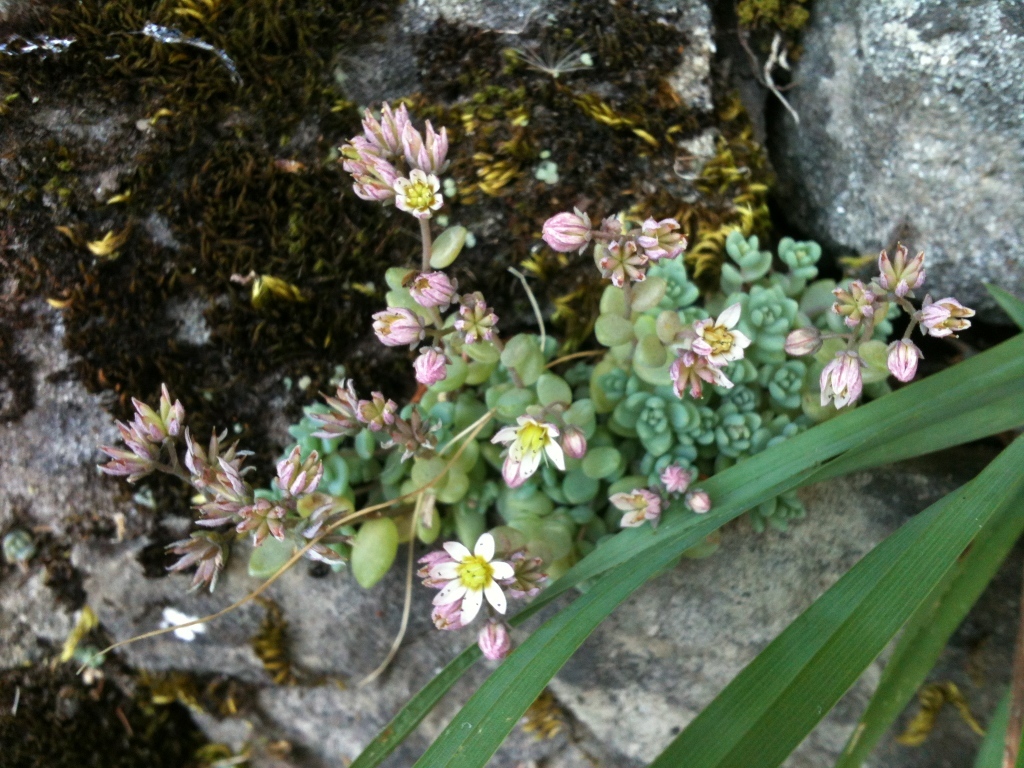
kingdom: Plantae
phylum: Tracheophyta
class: Magnoliopsida
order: Saxifragales
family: Crassulaceae
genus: Sedum
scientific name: Sedum dasyphyllum
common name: Thick-leaf stonecrop
